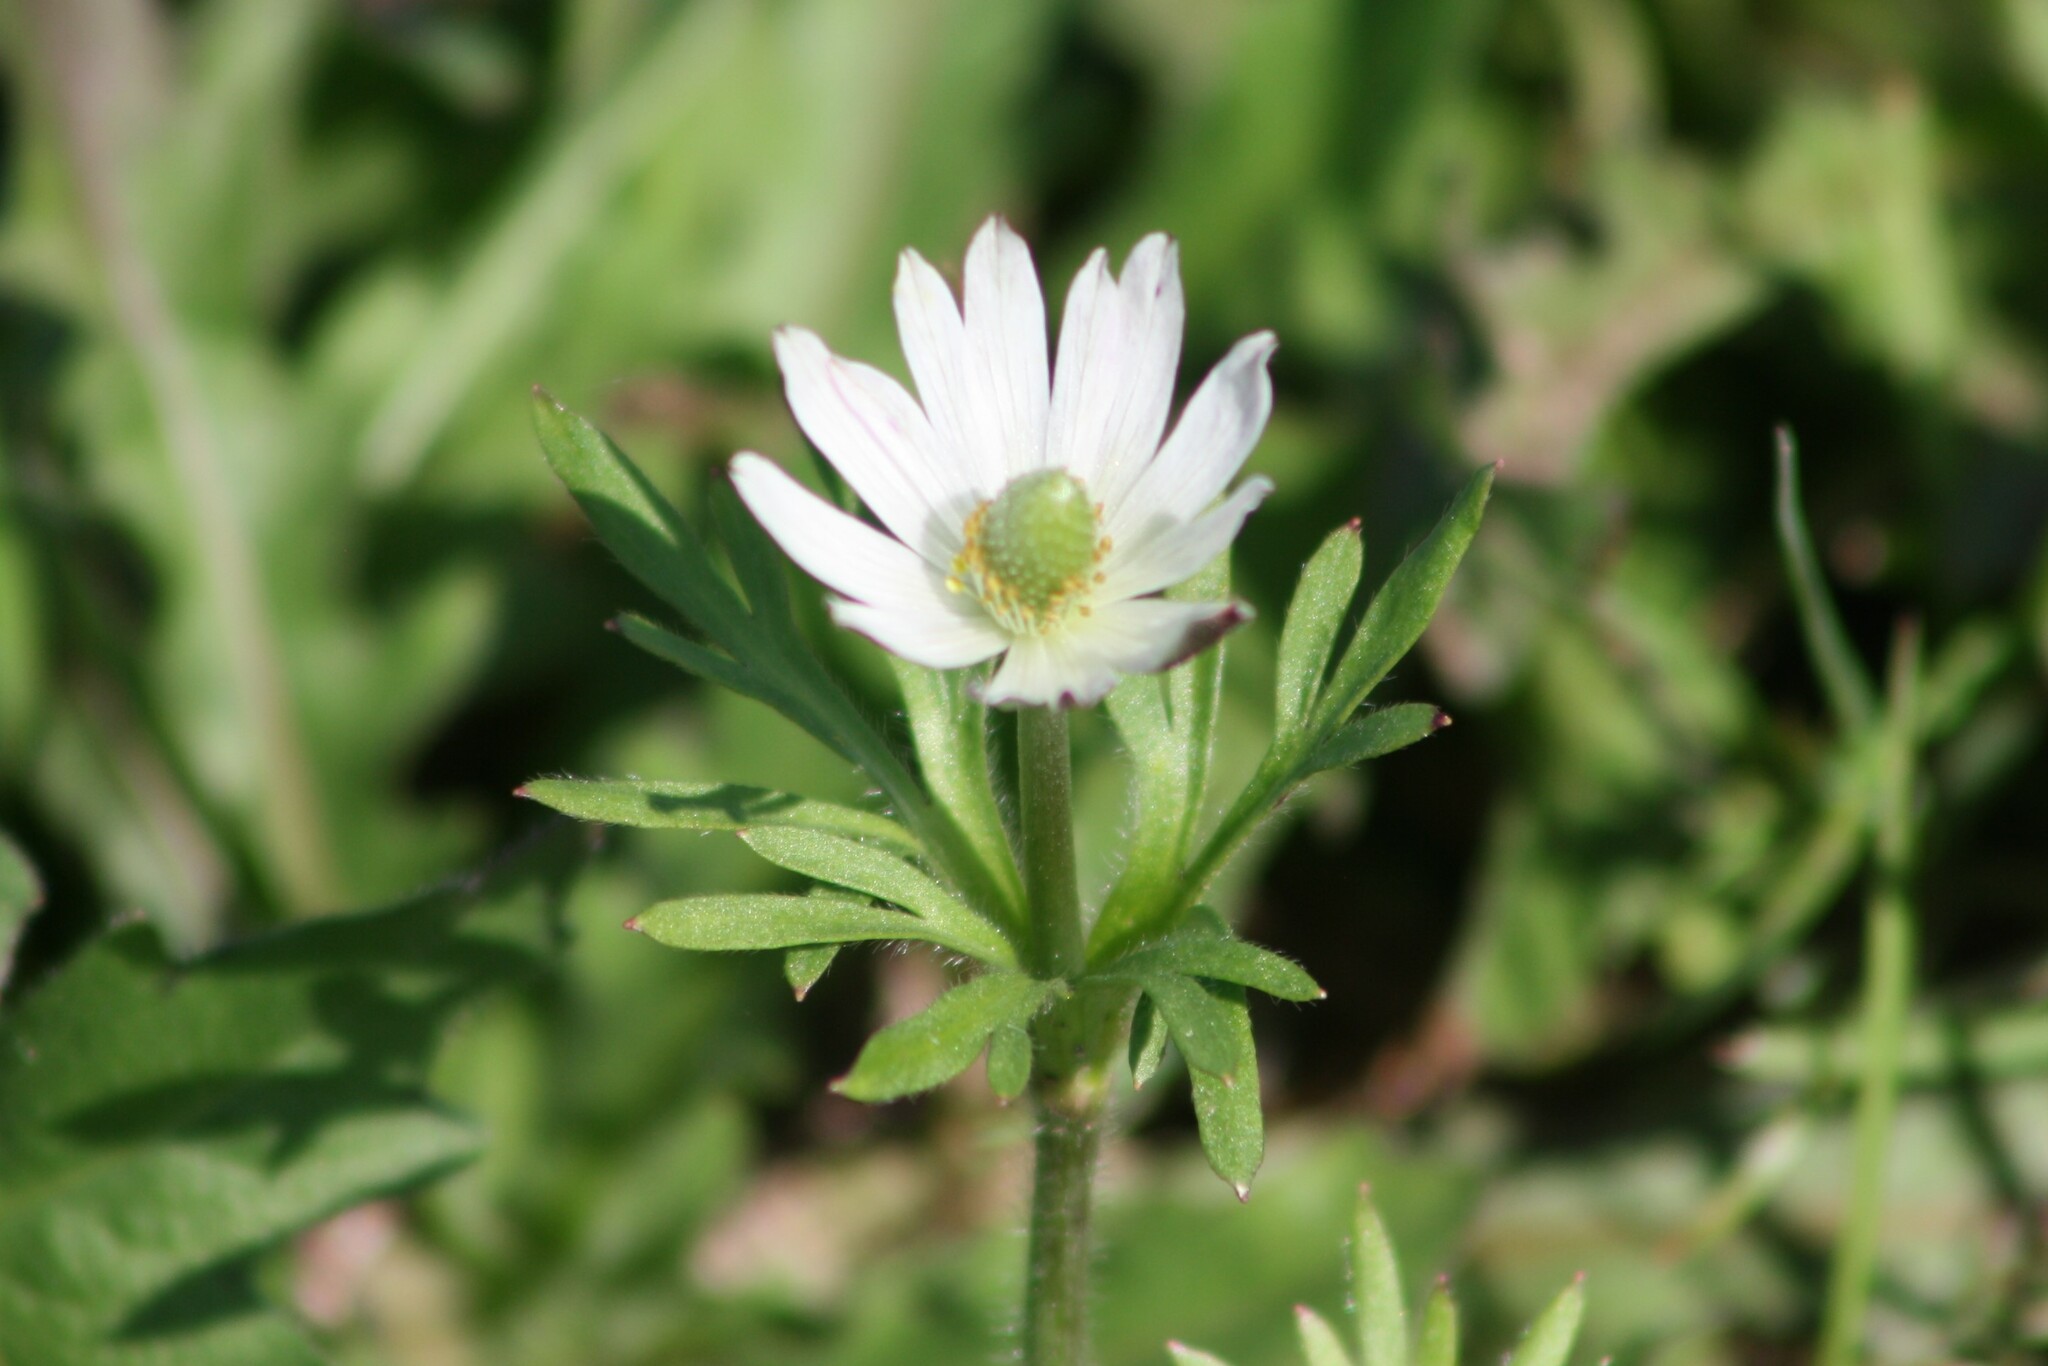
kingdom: Plantae
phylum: Tracheophyta
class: Magnoliopsida
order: Ranunculales
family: Ranunculaceae
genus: Anemone
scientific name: Anemone berlandieri
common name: Ten-petal anemone
